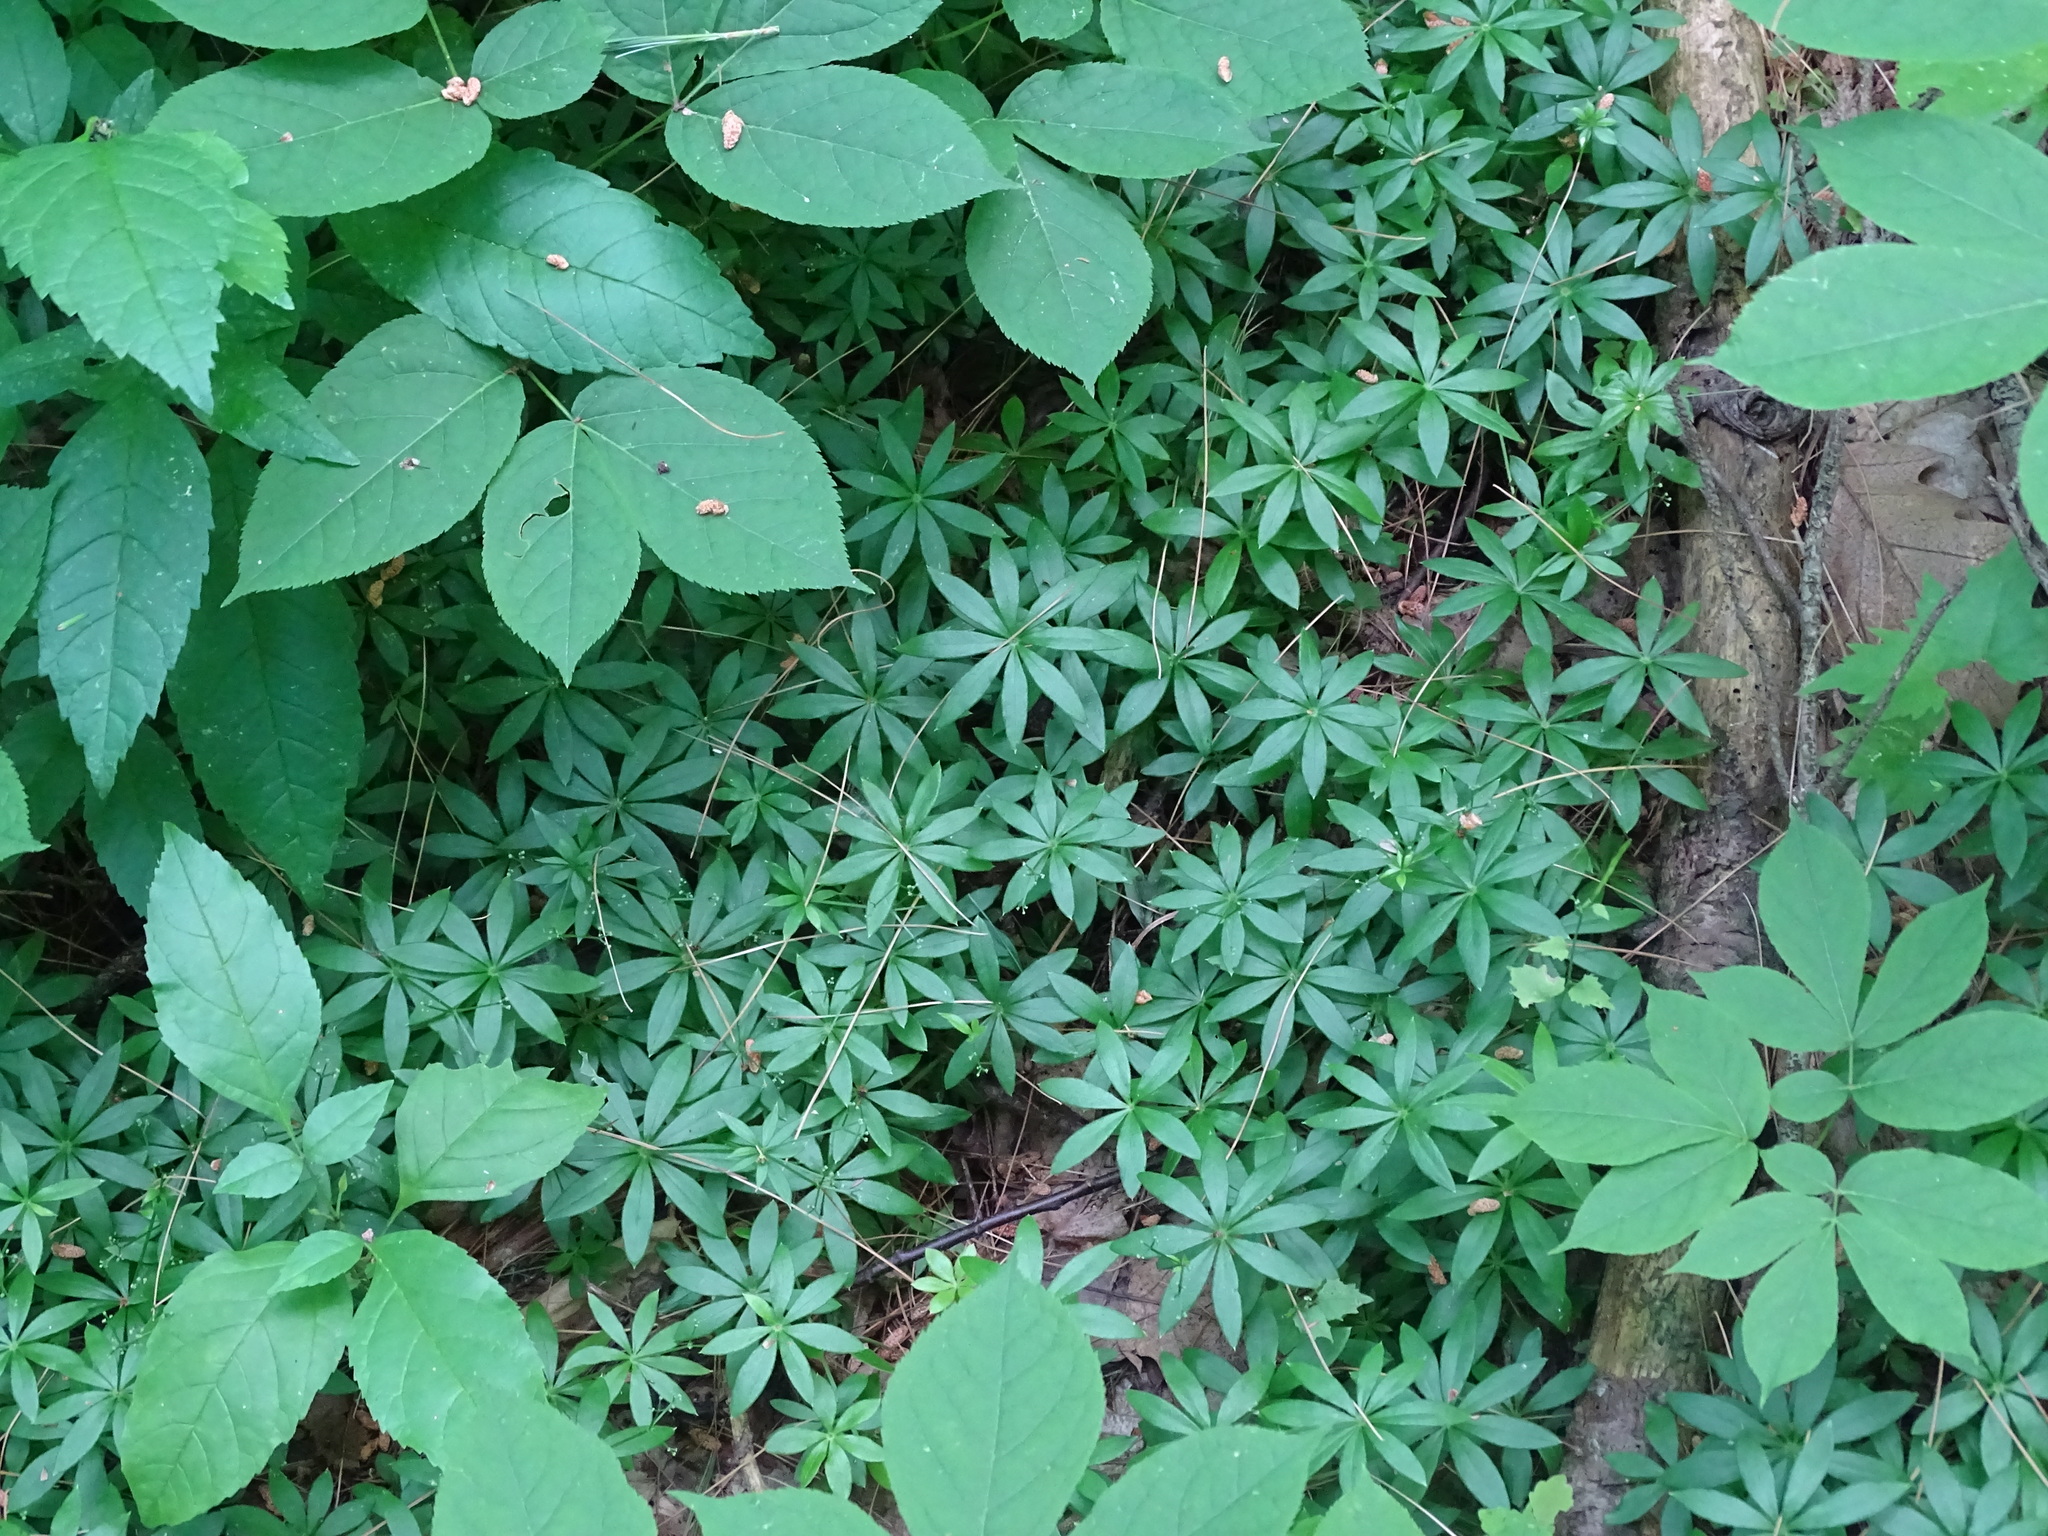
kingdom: Plantae
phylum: Tracheophyta
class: Magnoliopsida
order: Gentianales
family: Rubiaceae
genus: Galium
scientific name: Galium odoratum
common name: Sweet woodruff
